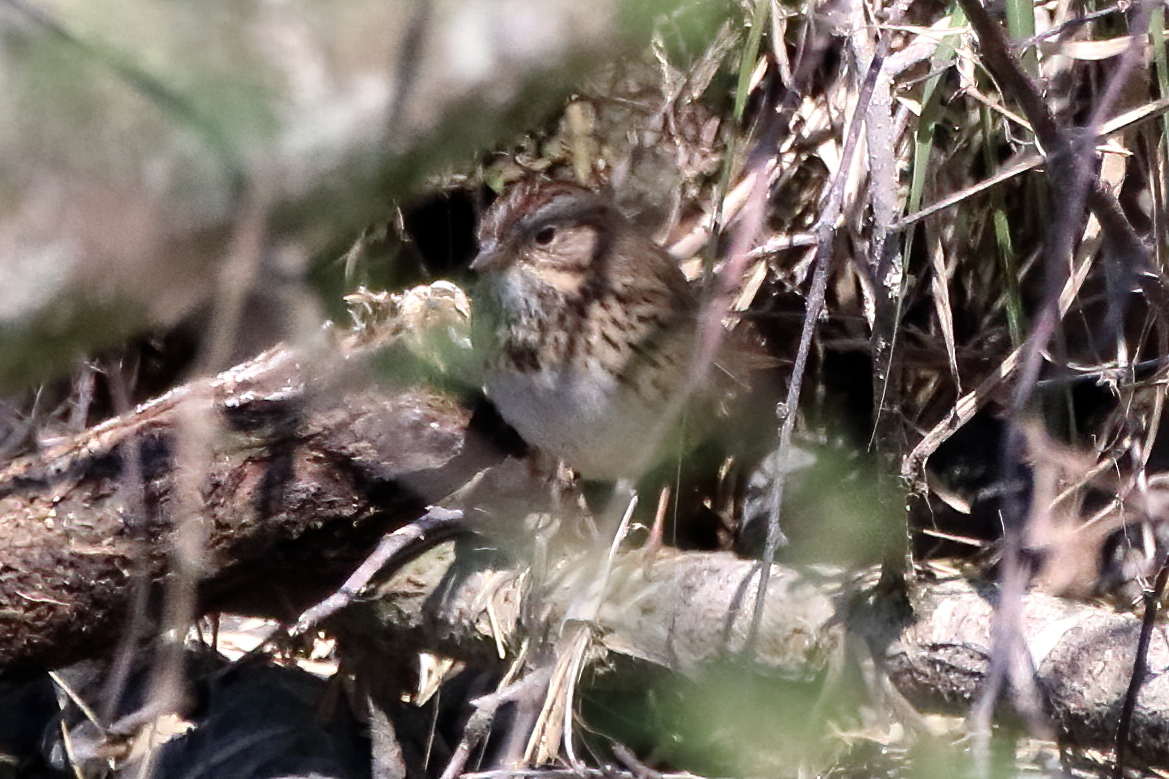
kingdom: Animalia
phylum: Chordata
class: Aves
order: Passeriformes
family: Passerellidae
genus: Melospiza
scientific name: Melospiza lincolnii
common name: Lincoln's sparrow
